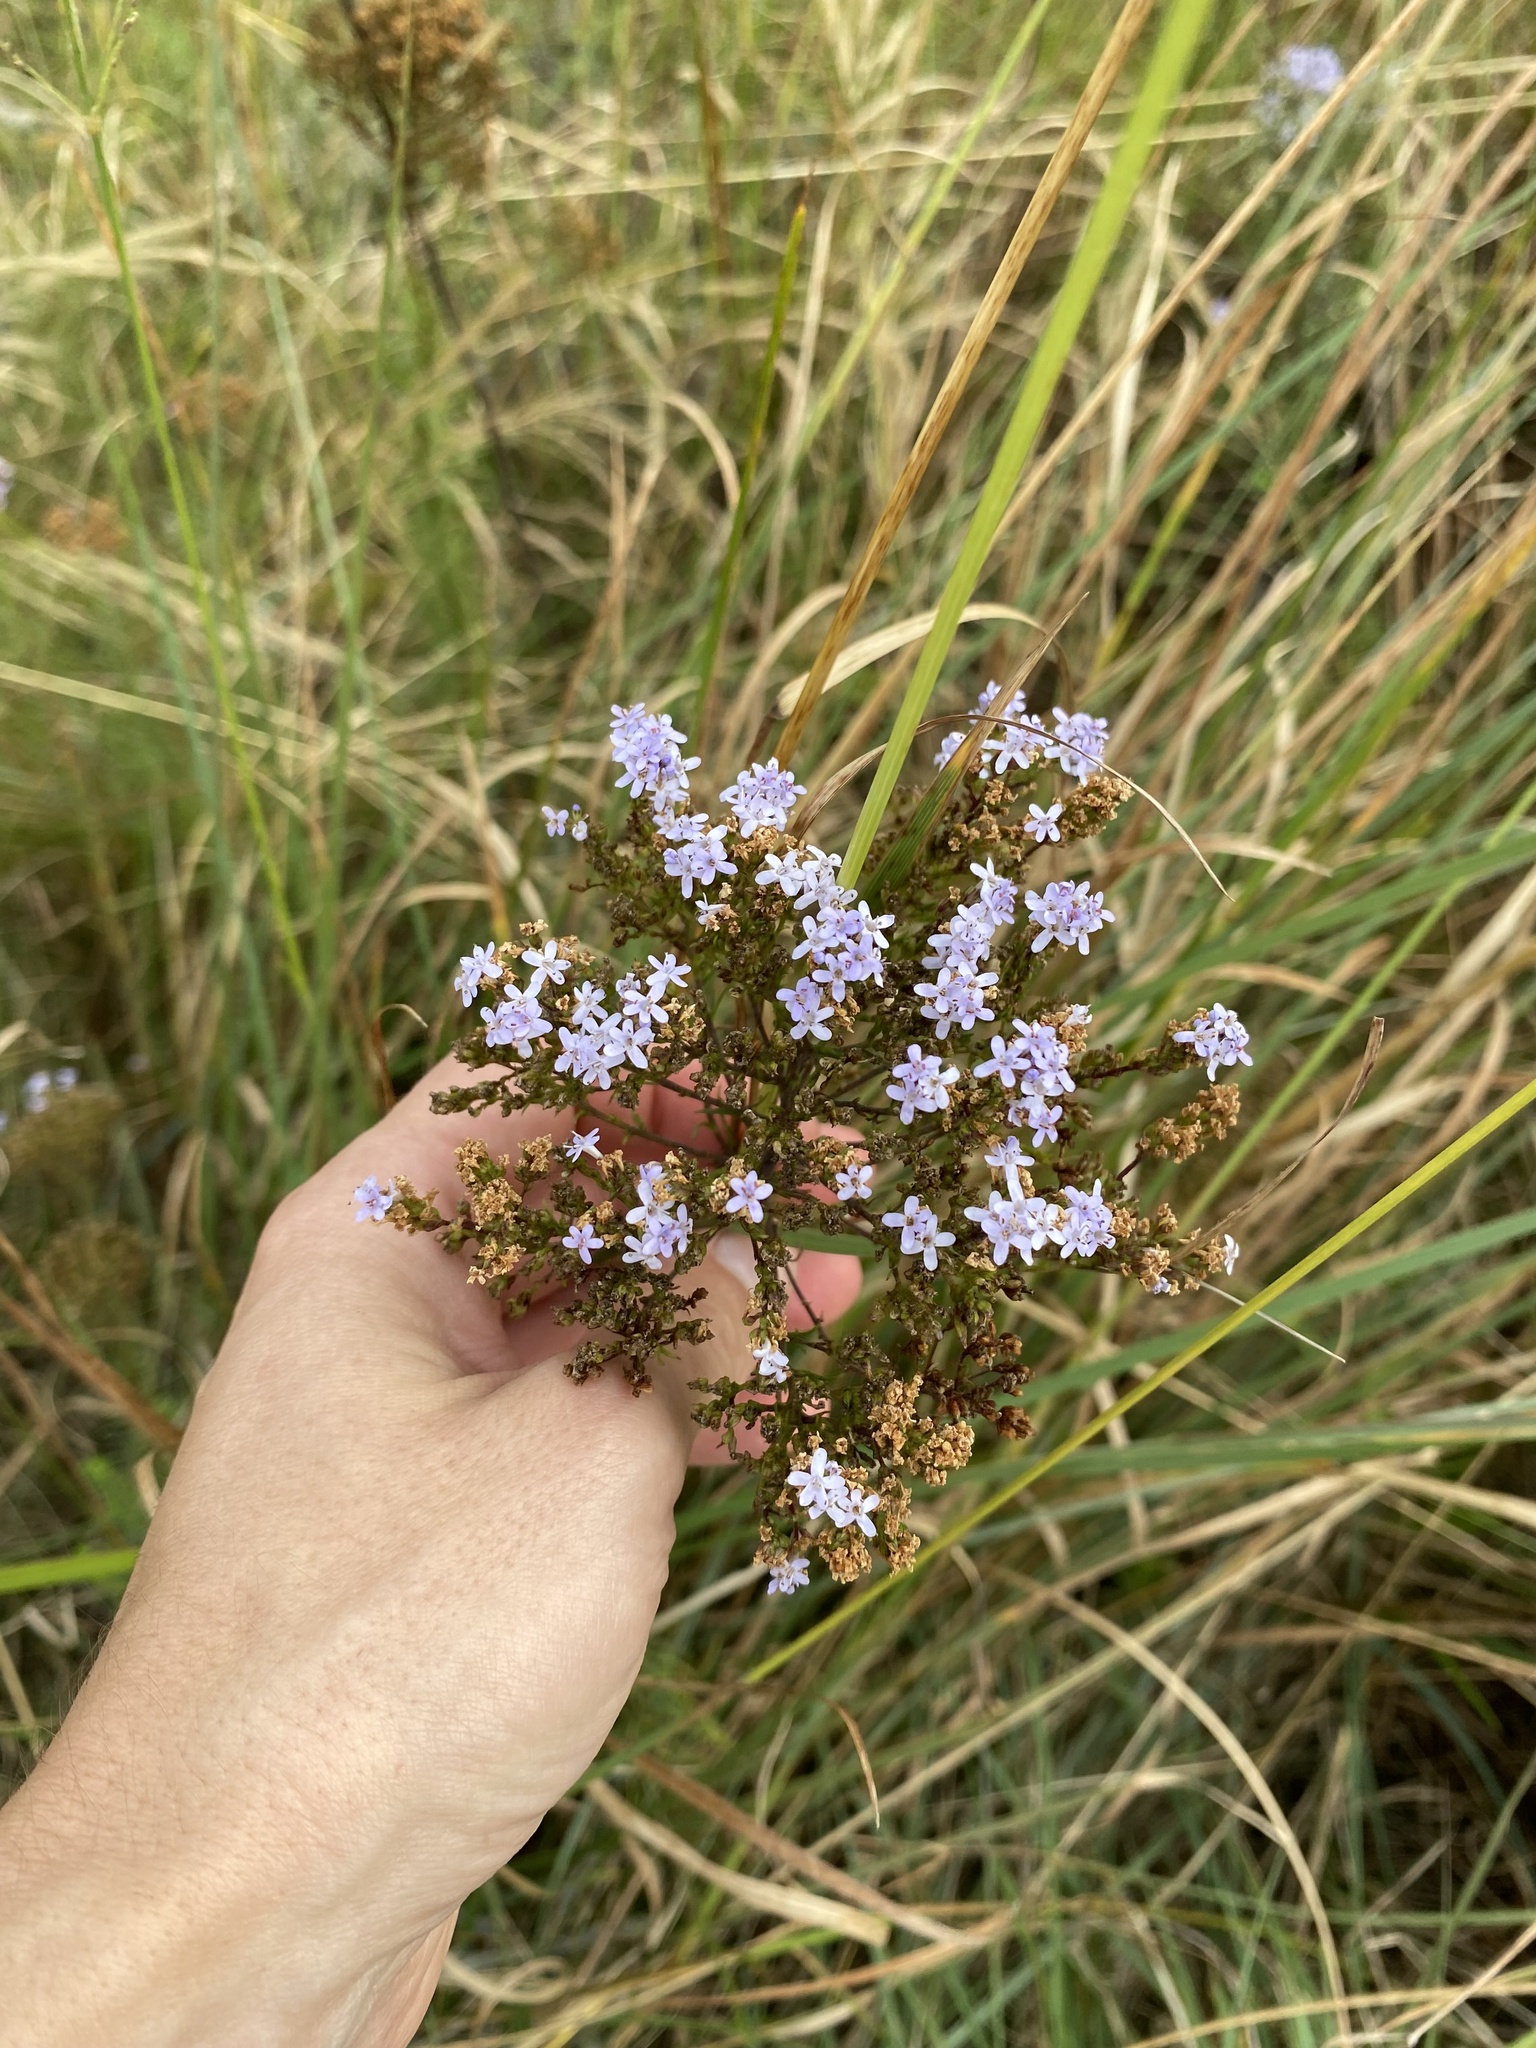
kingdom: Plantae
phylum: Tracheophyta
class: Magnoliopsida
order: Lamiales
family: Scrophulariaceae
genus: Tetraselago
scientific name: Tetraselago natalensis
